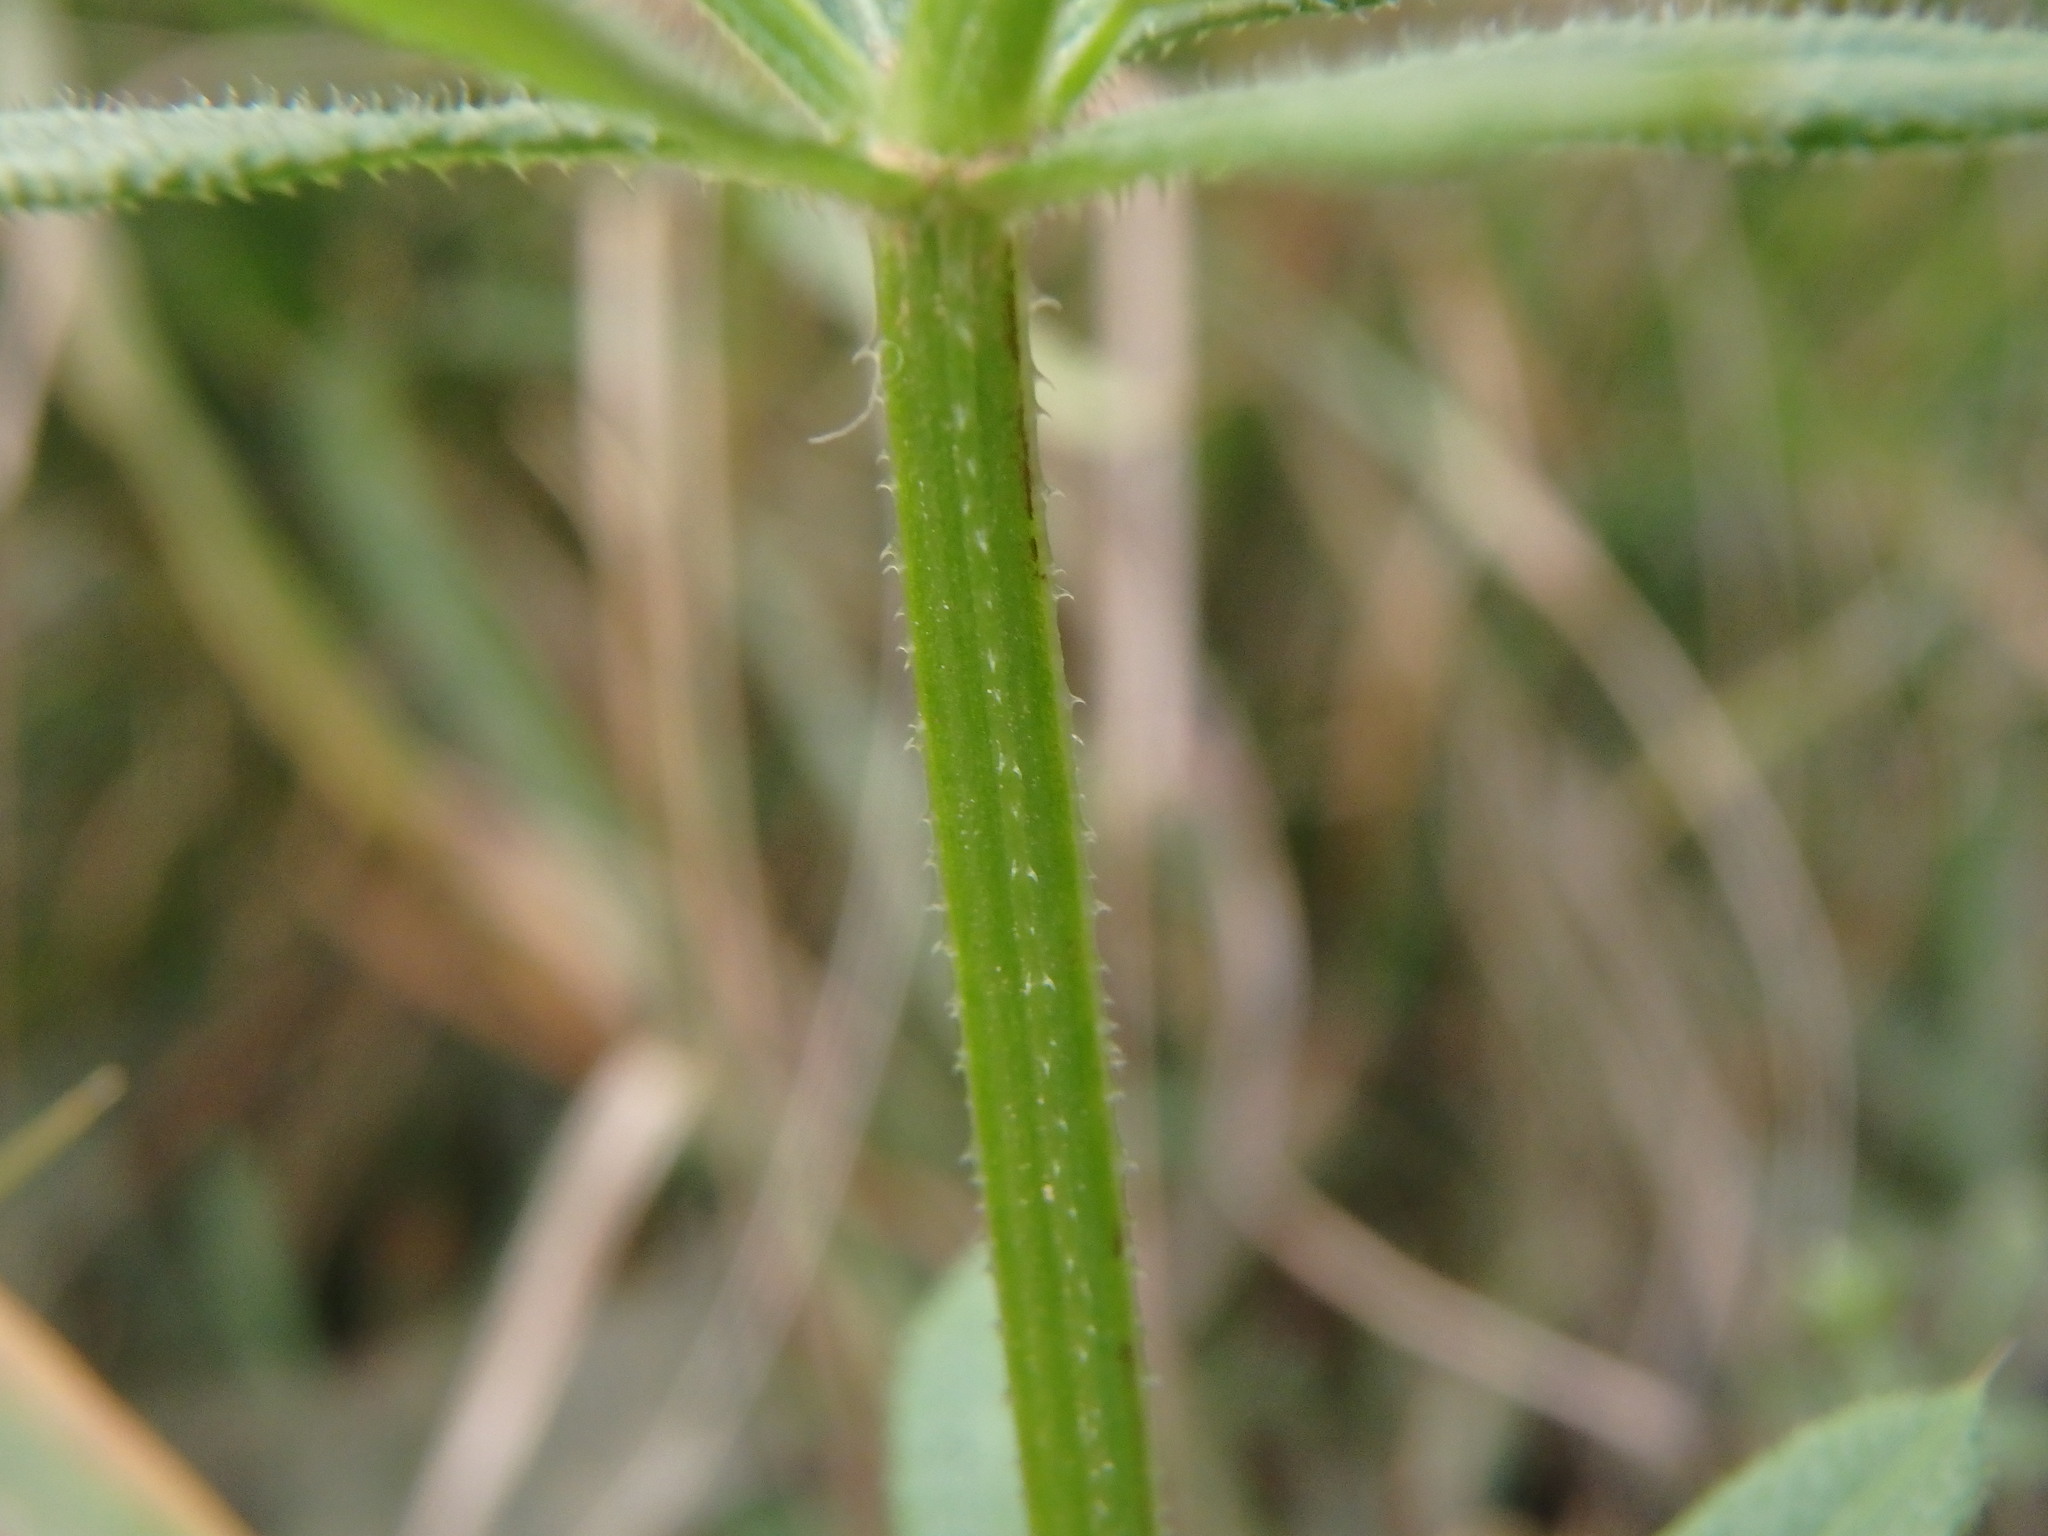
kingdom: Plantae
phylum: Tracheophyta
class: Magnoliopsida
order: Gentianales
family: Rubiaceae
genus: Galium
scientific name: Galium aparine
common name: Cleavers
